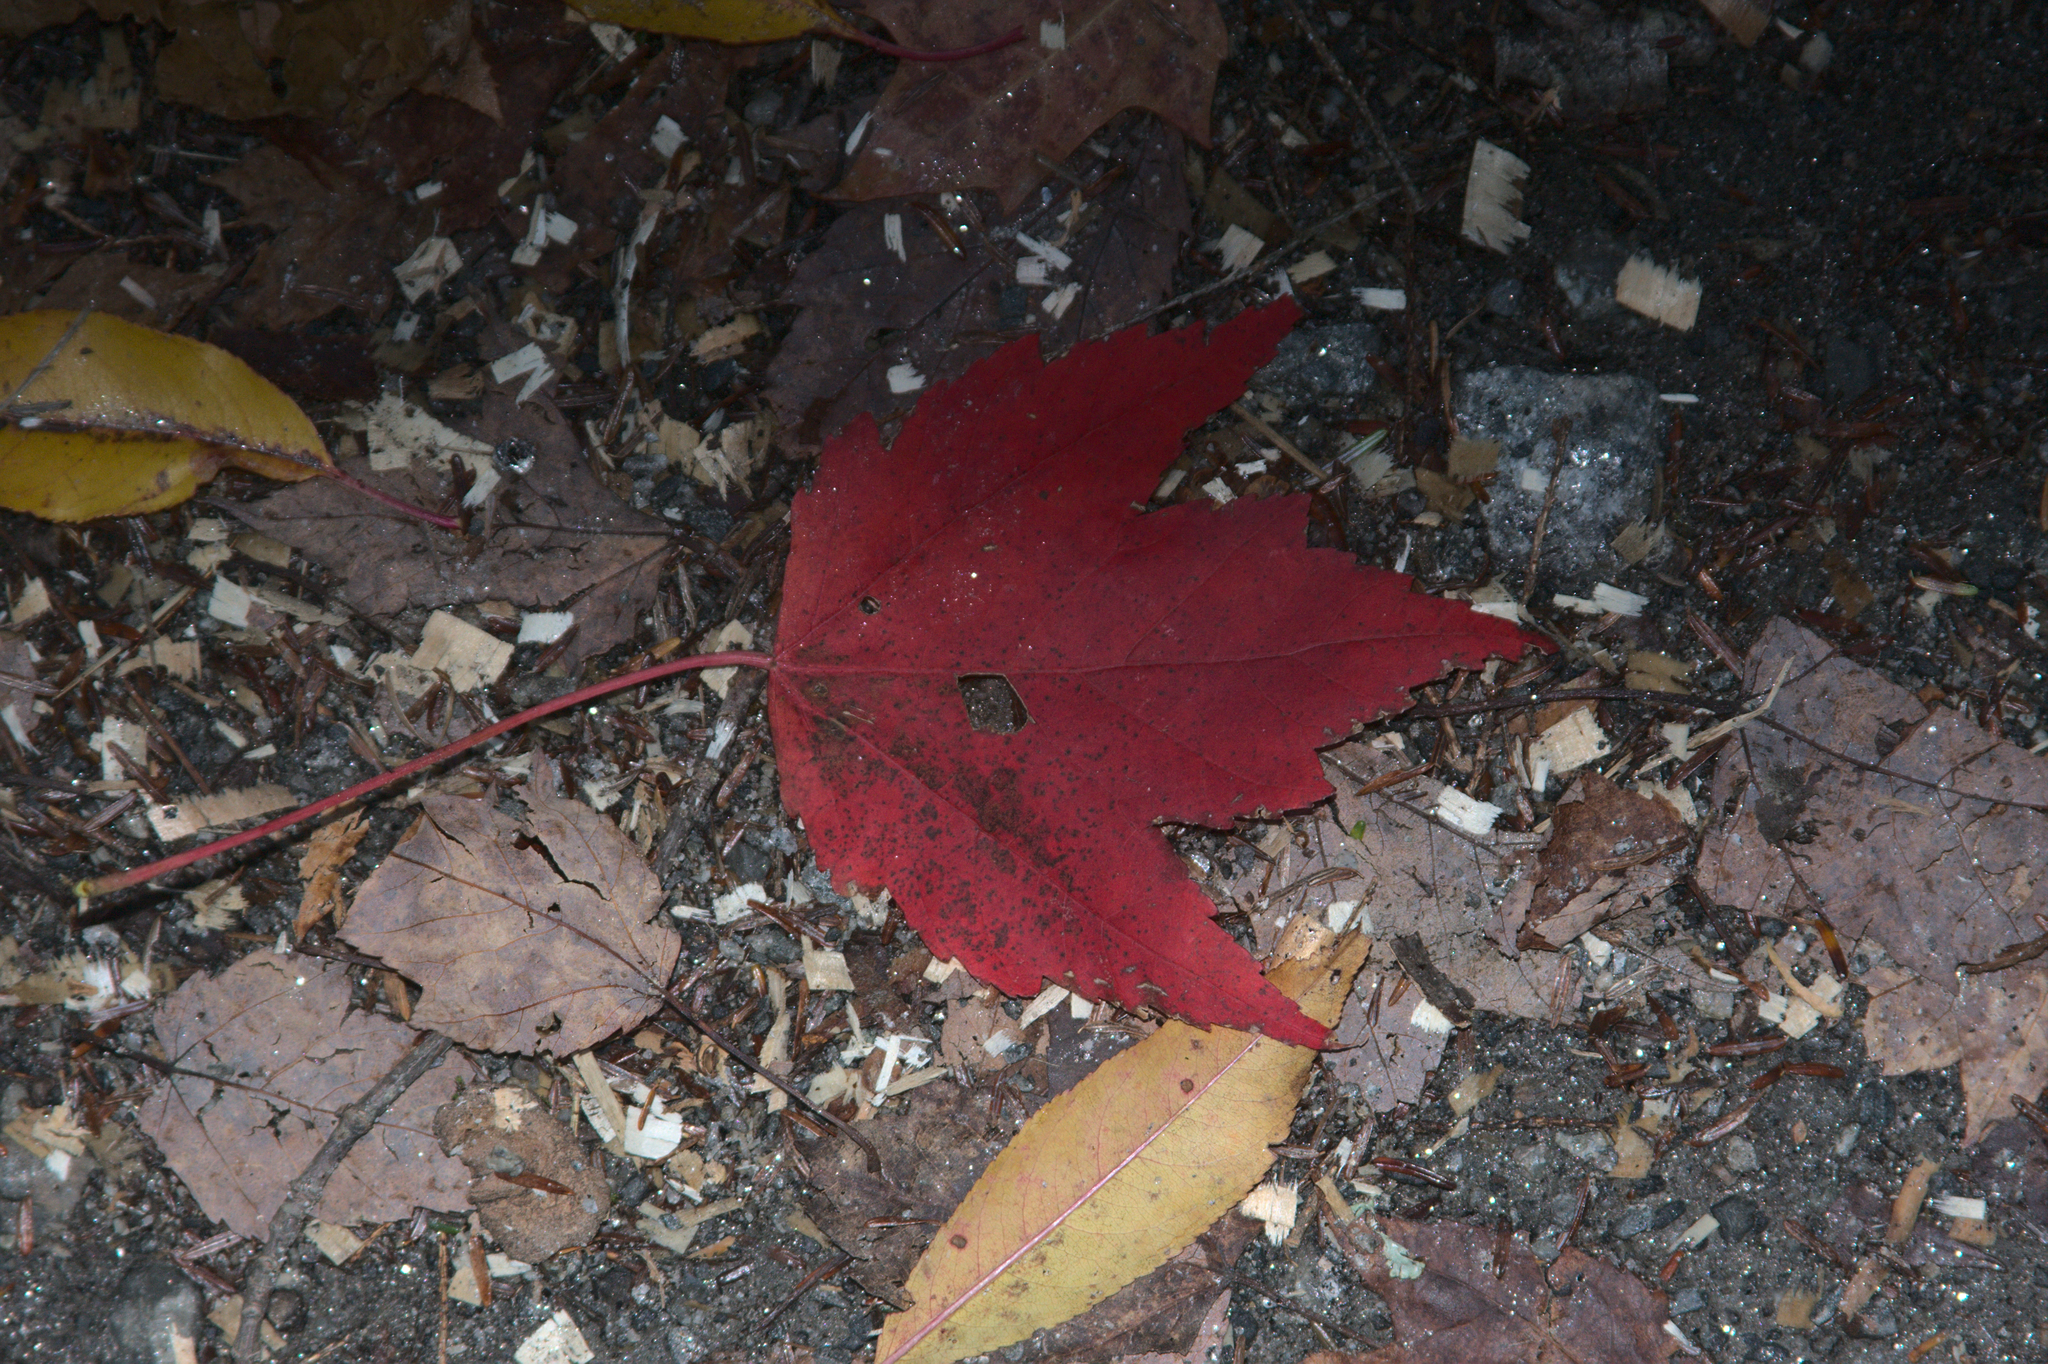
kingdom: Plantae
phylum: Tracheophyta
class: Magnoliopsida
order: Sapindales
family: Sapindaceae
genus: Acer
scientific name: Acer rubrum
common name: Red maple
